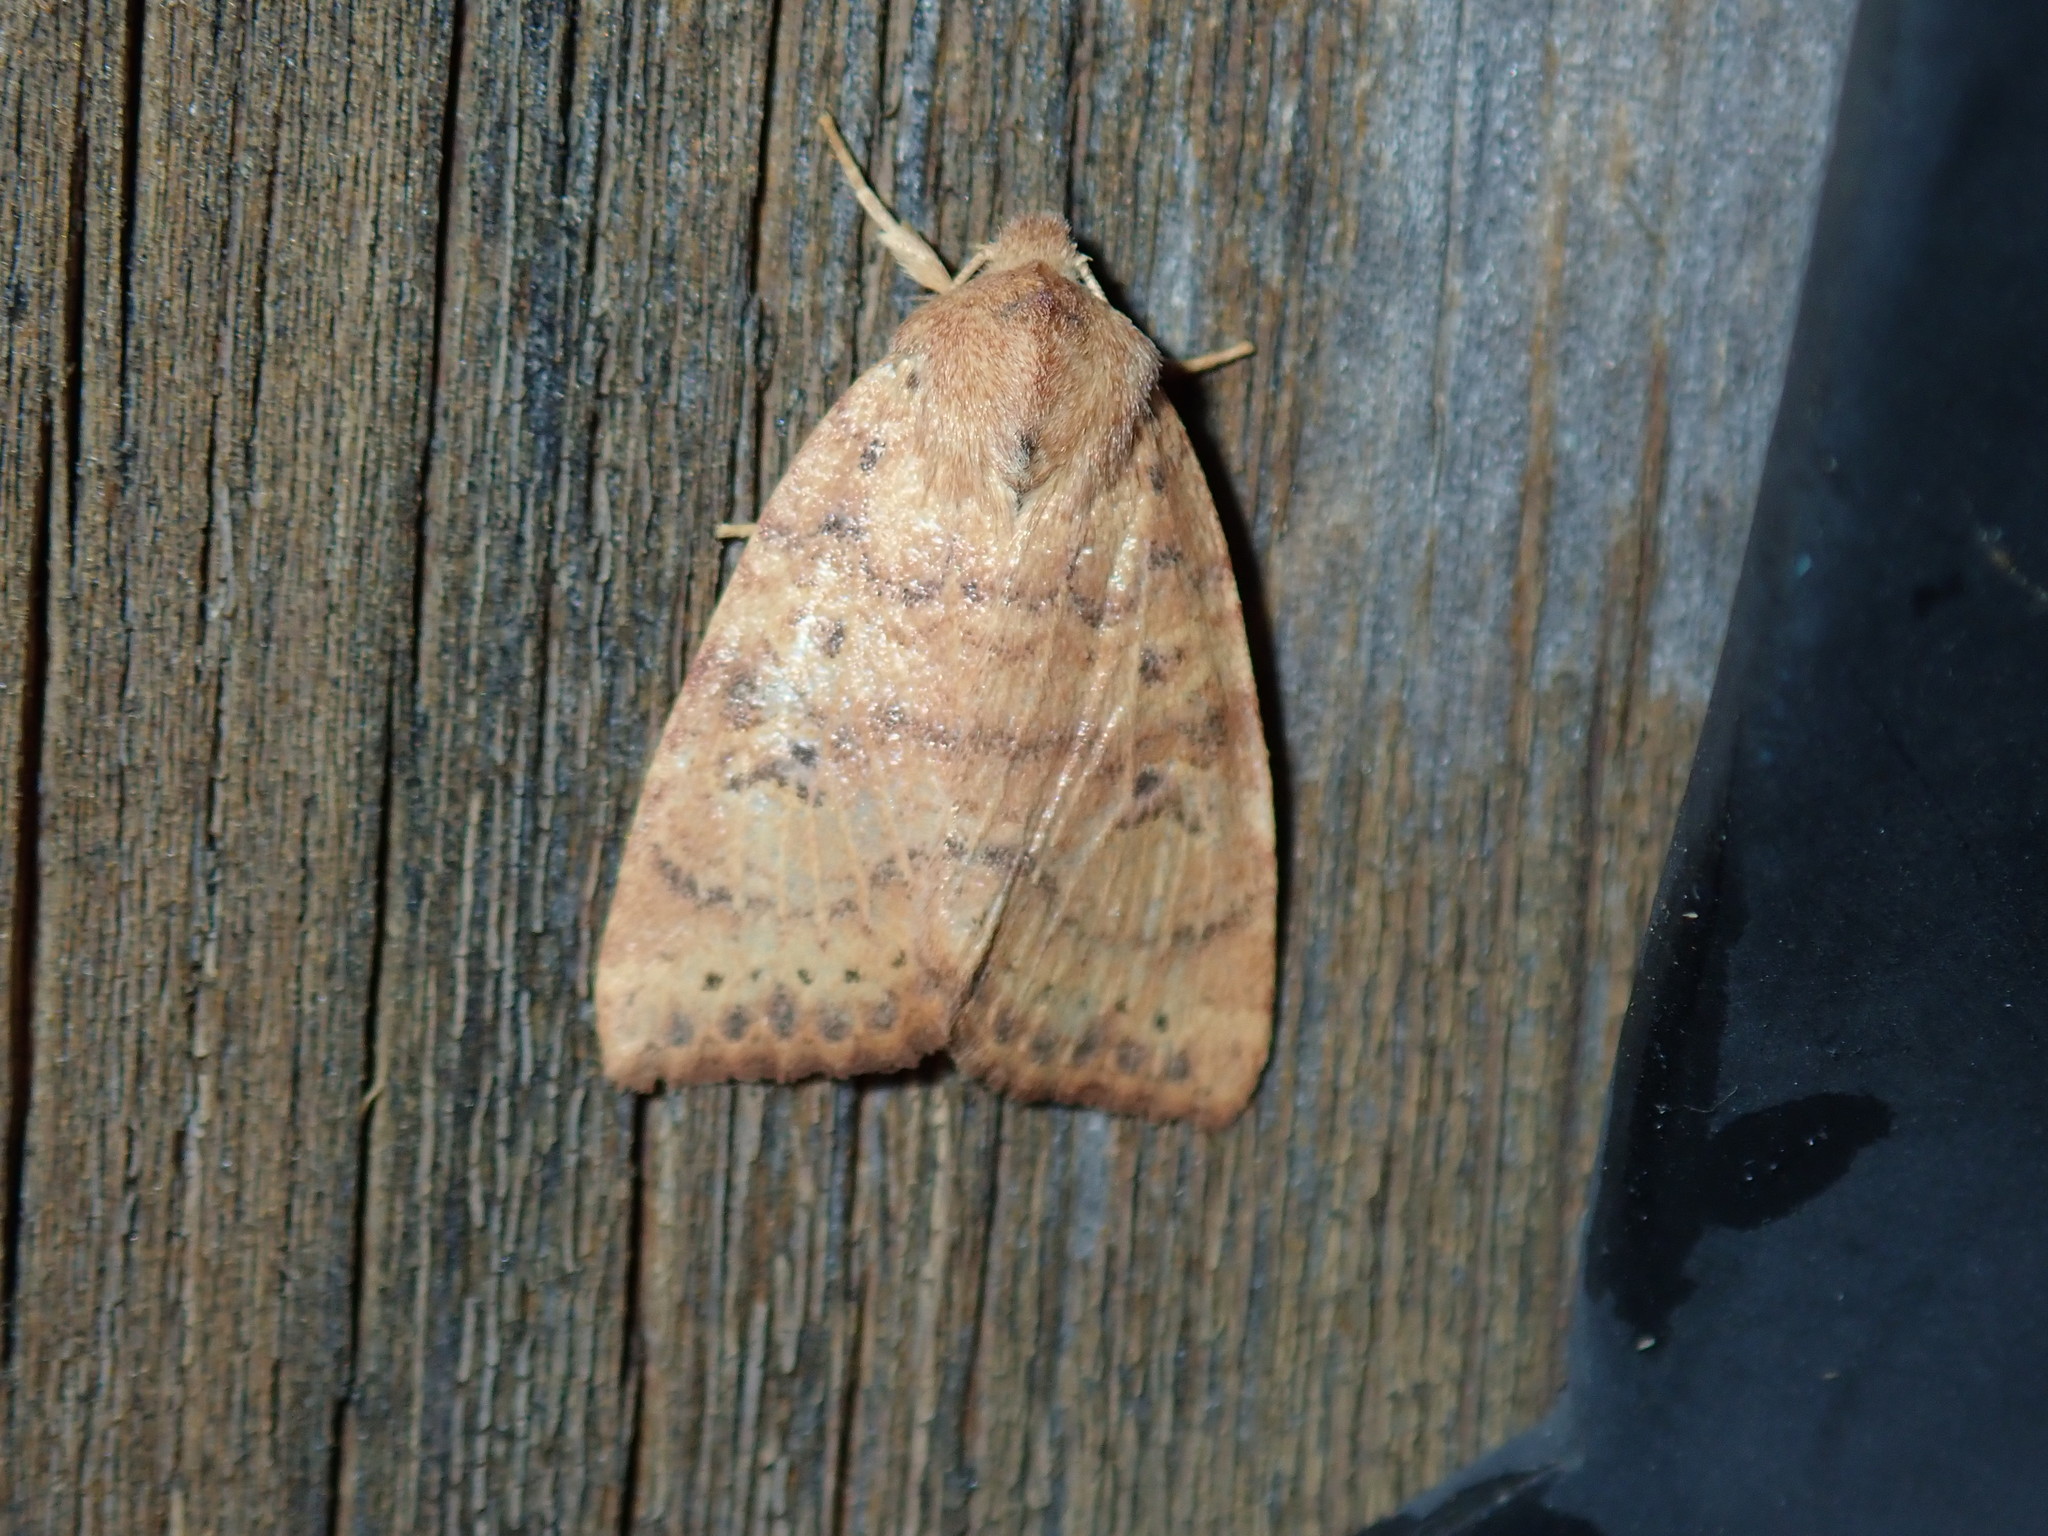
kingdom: Animalia
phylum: Arthropoda
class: Insecta
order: Lepidoptera
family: Noctuidae
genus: Anathix
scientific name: Anathix ralla
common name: Dotted sallow
